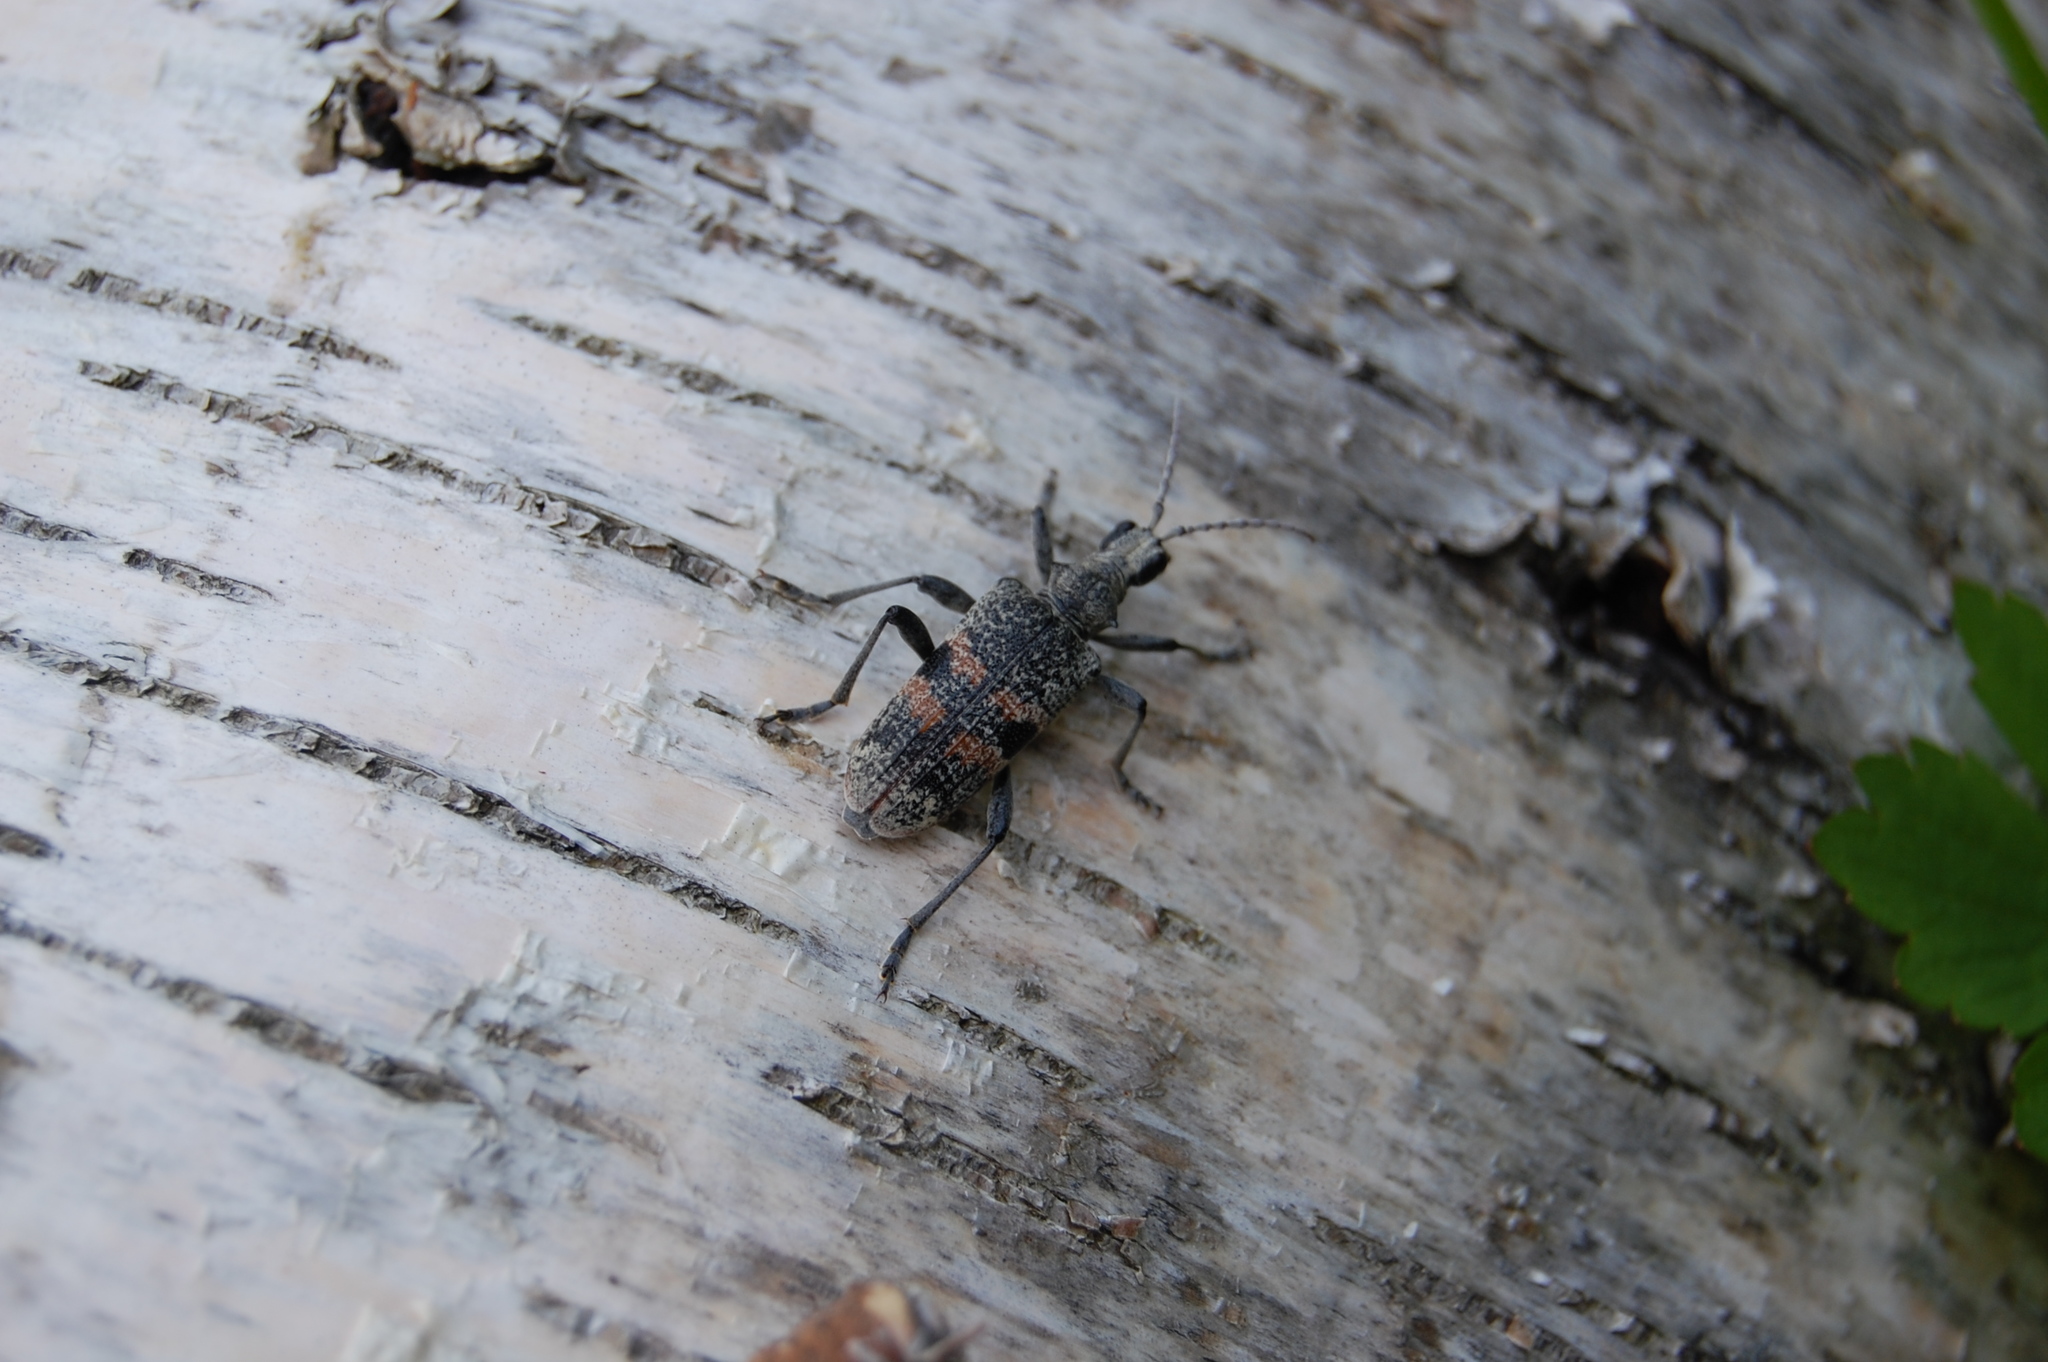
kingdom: Animalia
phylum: Arthropoda
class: Insecta
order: Coleoptera
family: Cerambycidae
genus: Rhagium
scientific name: Rhagium mordax
